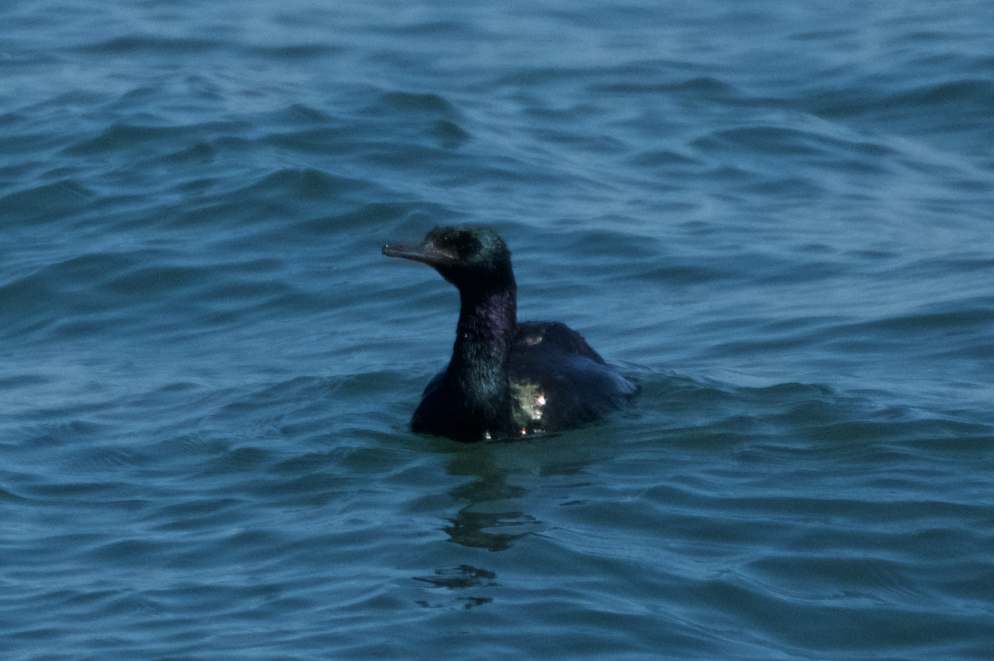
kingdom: Animalia
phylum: Chordata
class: Aves
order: Suliformes
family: Phalacrocoracidae
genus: Phalacrocorax
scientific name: Phalacrocorax pelagicus
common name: Pelagic cormorant
